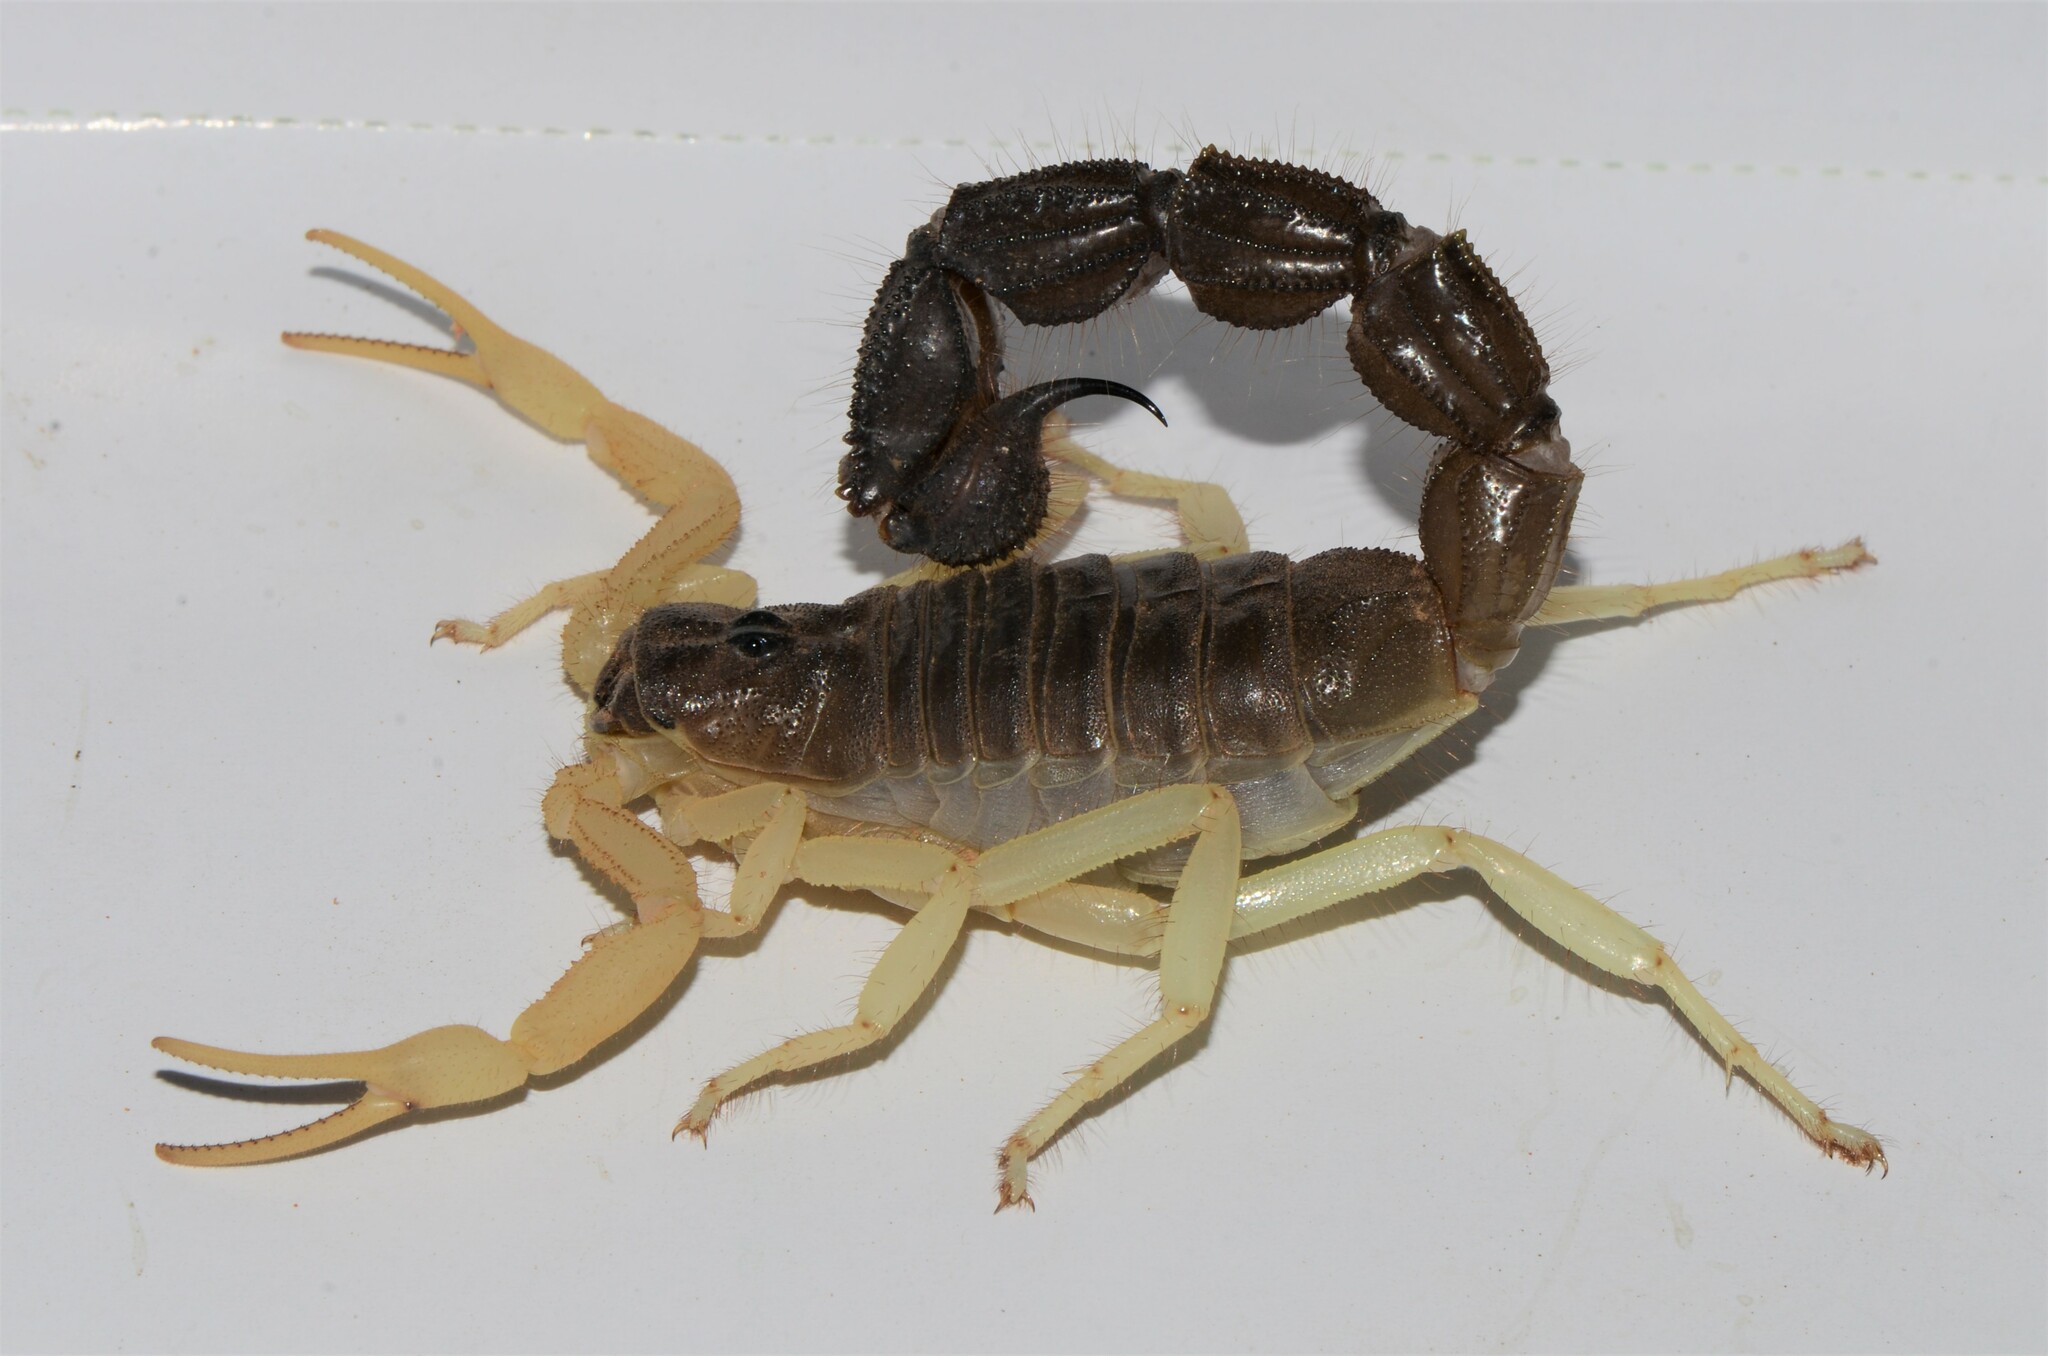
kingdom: Animalia
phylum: Arthropoda
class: Arachnida
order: Scorpiones
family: Buthidae
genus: Parabuthus
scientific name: Parabuthus schlechteri
